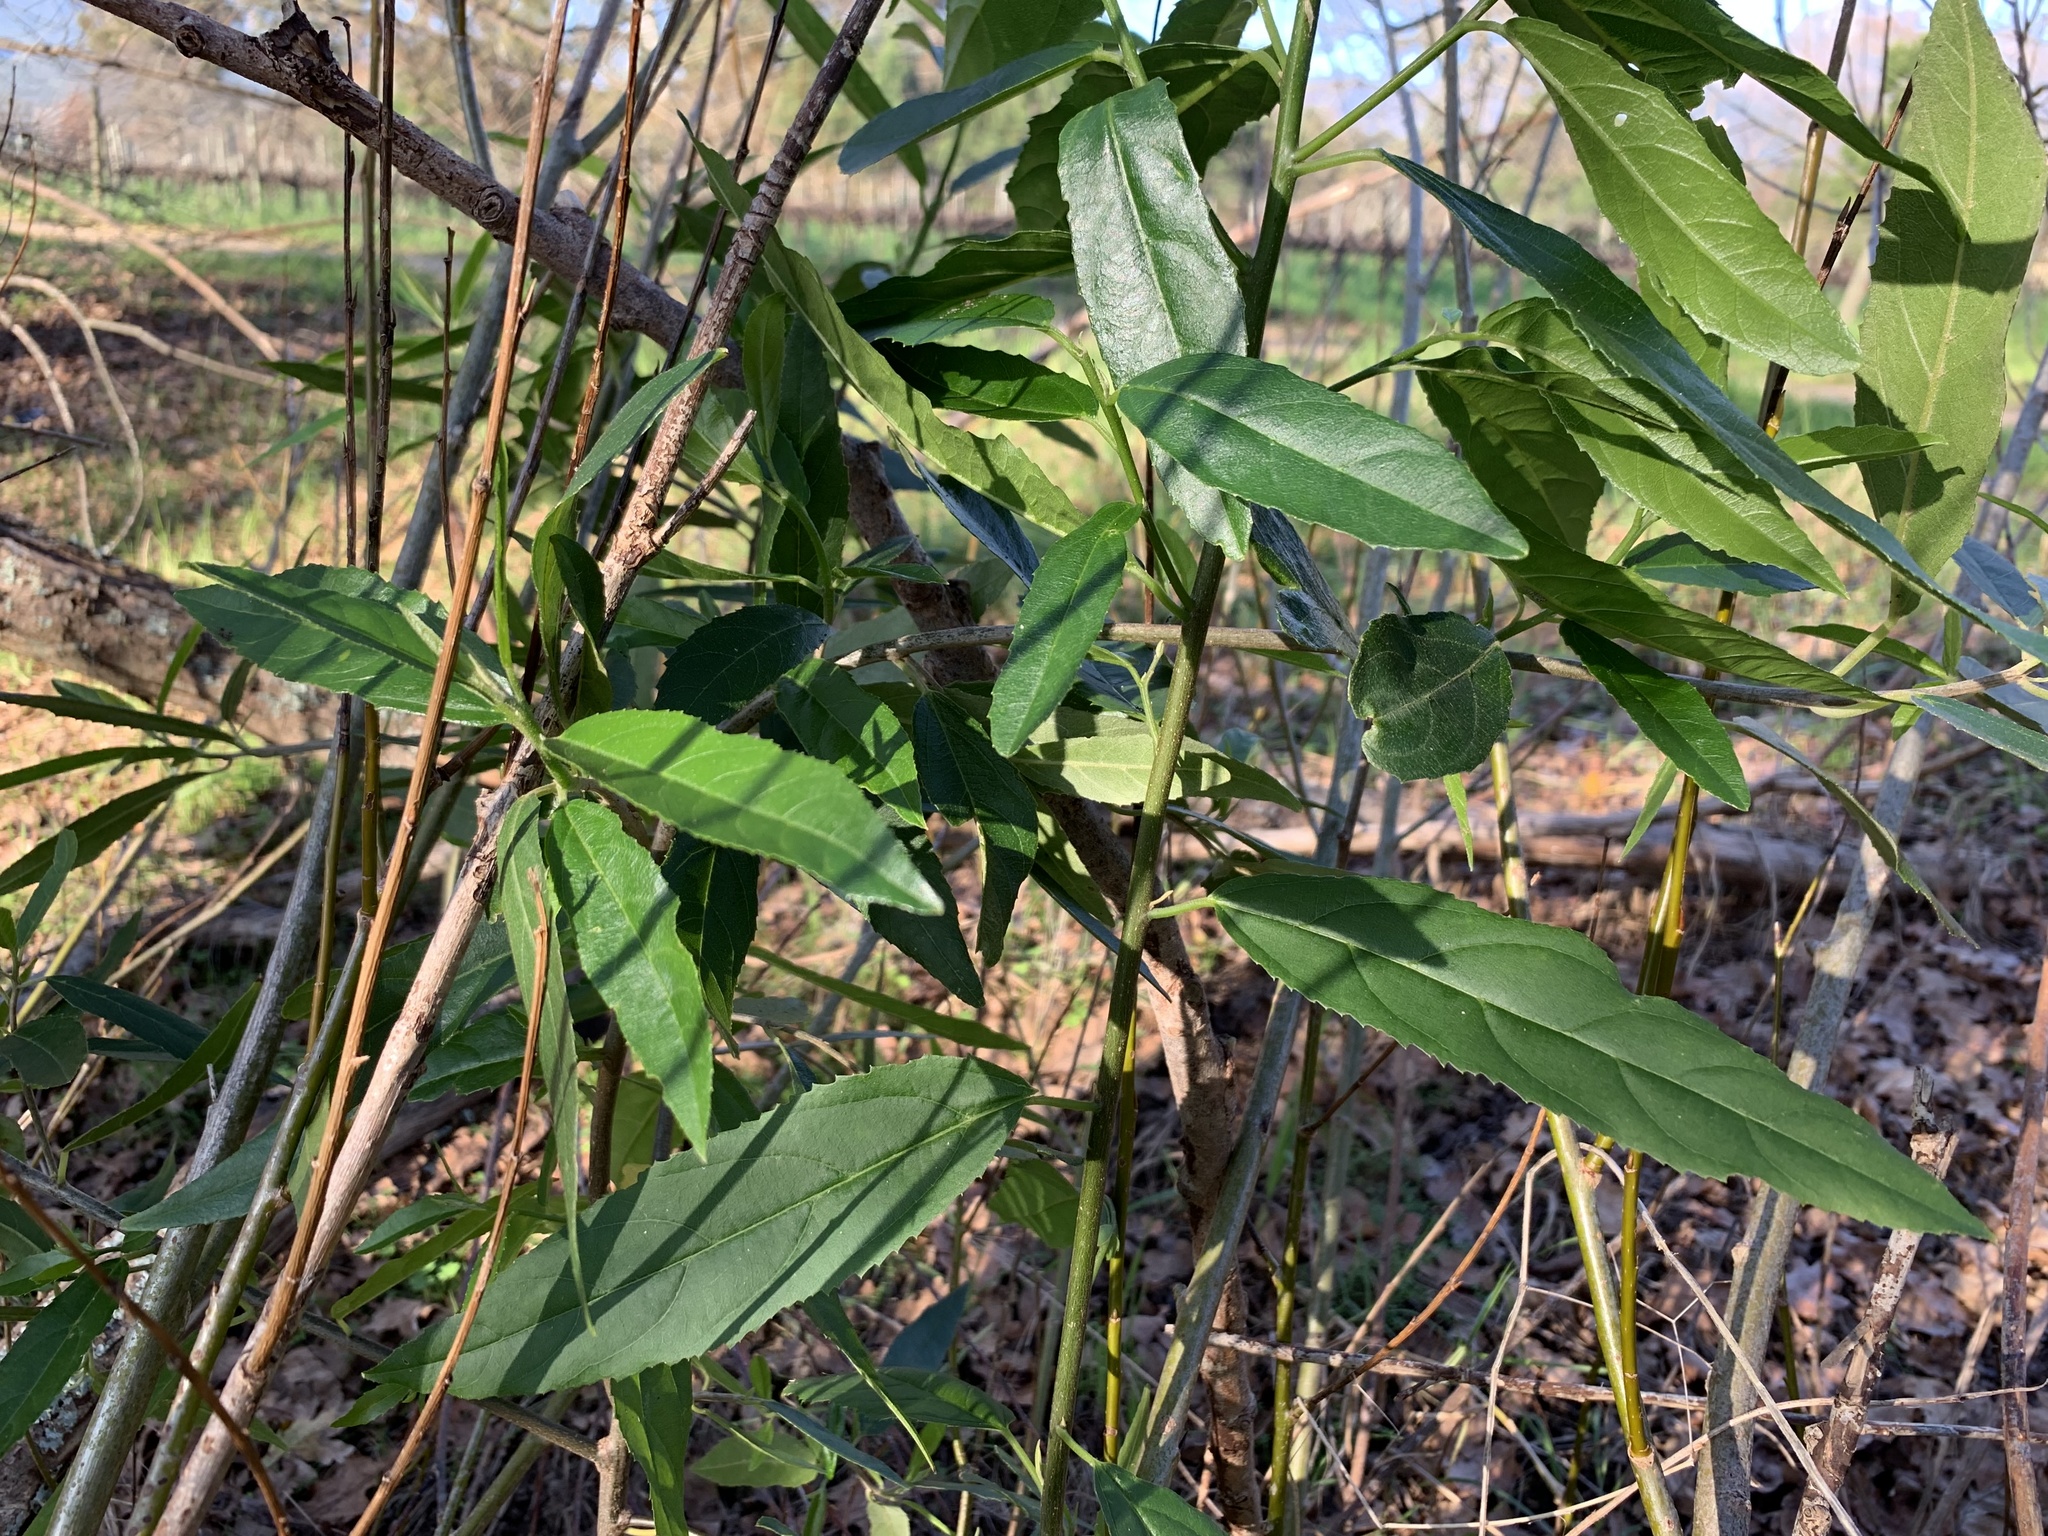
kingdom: Plantae
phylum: Tracheophyta
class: Magnoliopsida
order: Malpighiales
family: Achariaceae
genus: Kiggelaria
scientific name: Kiggelaria africana
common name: Wild peach
